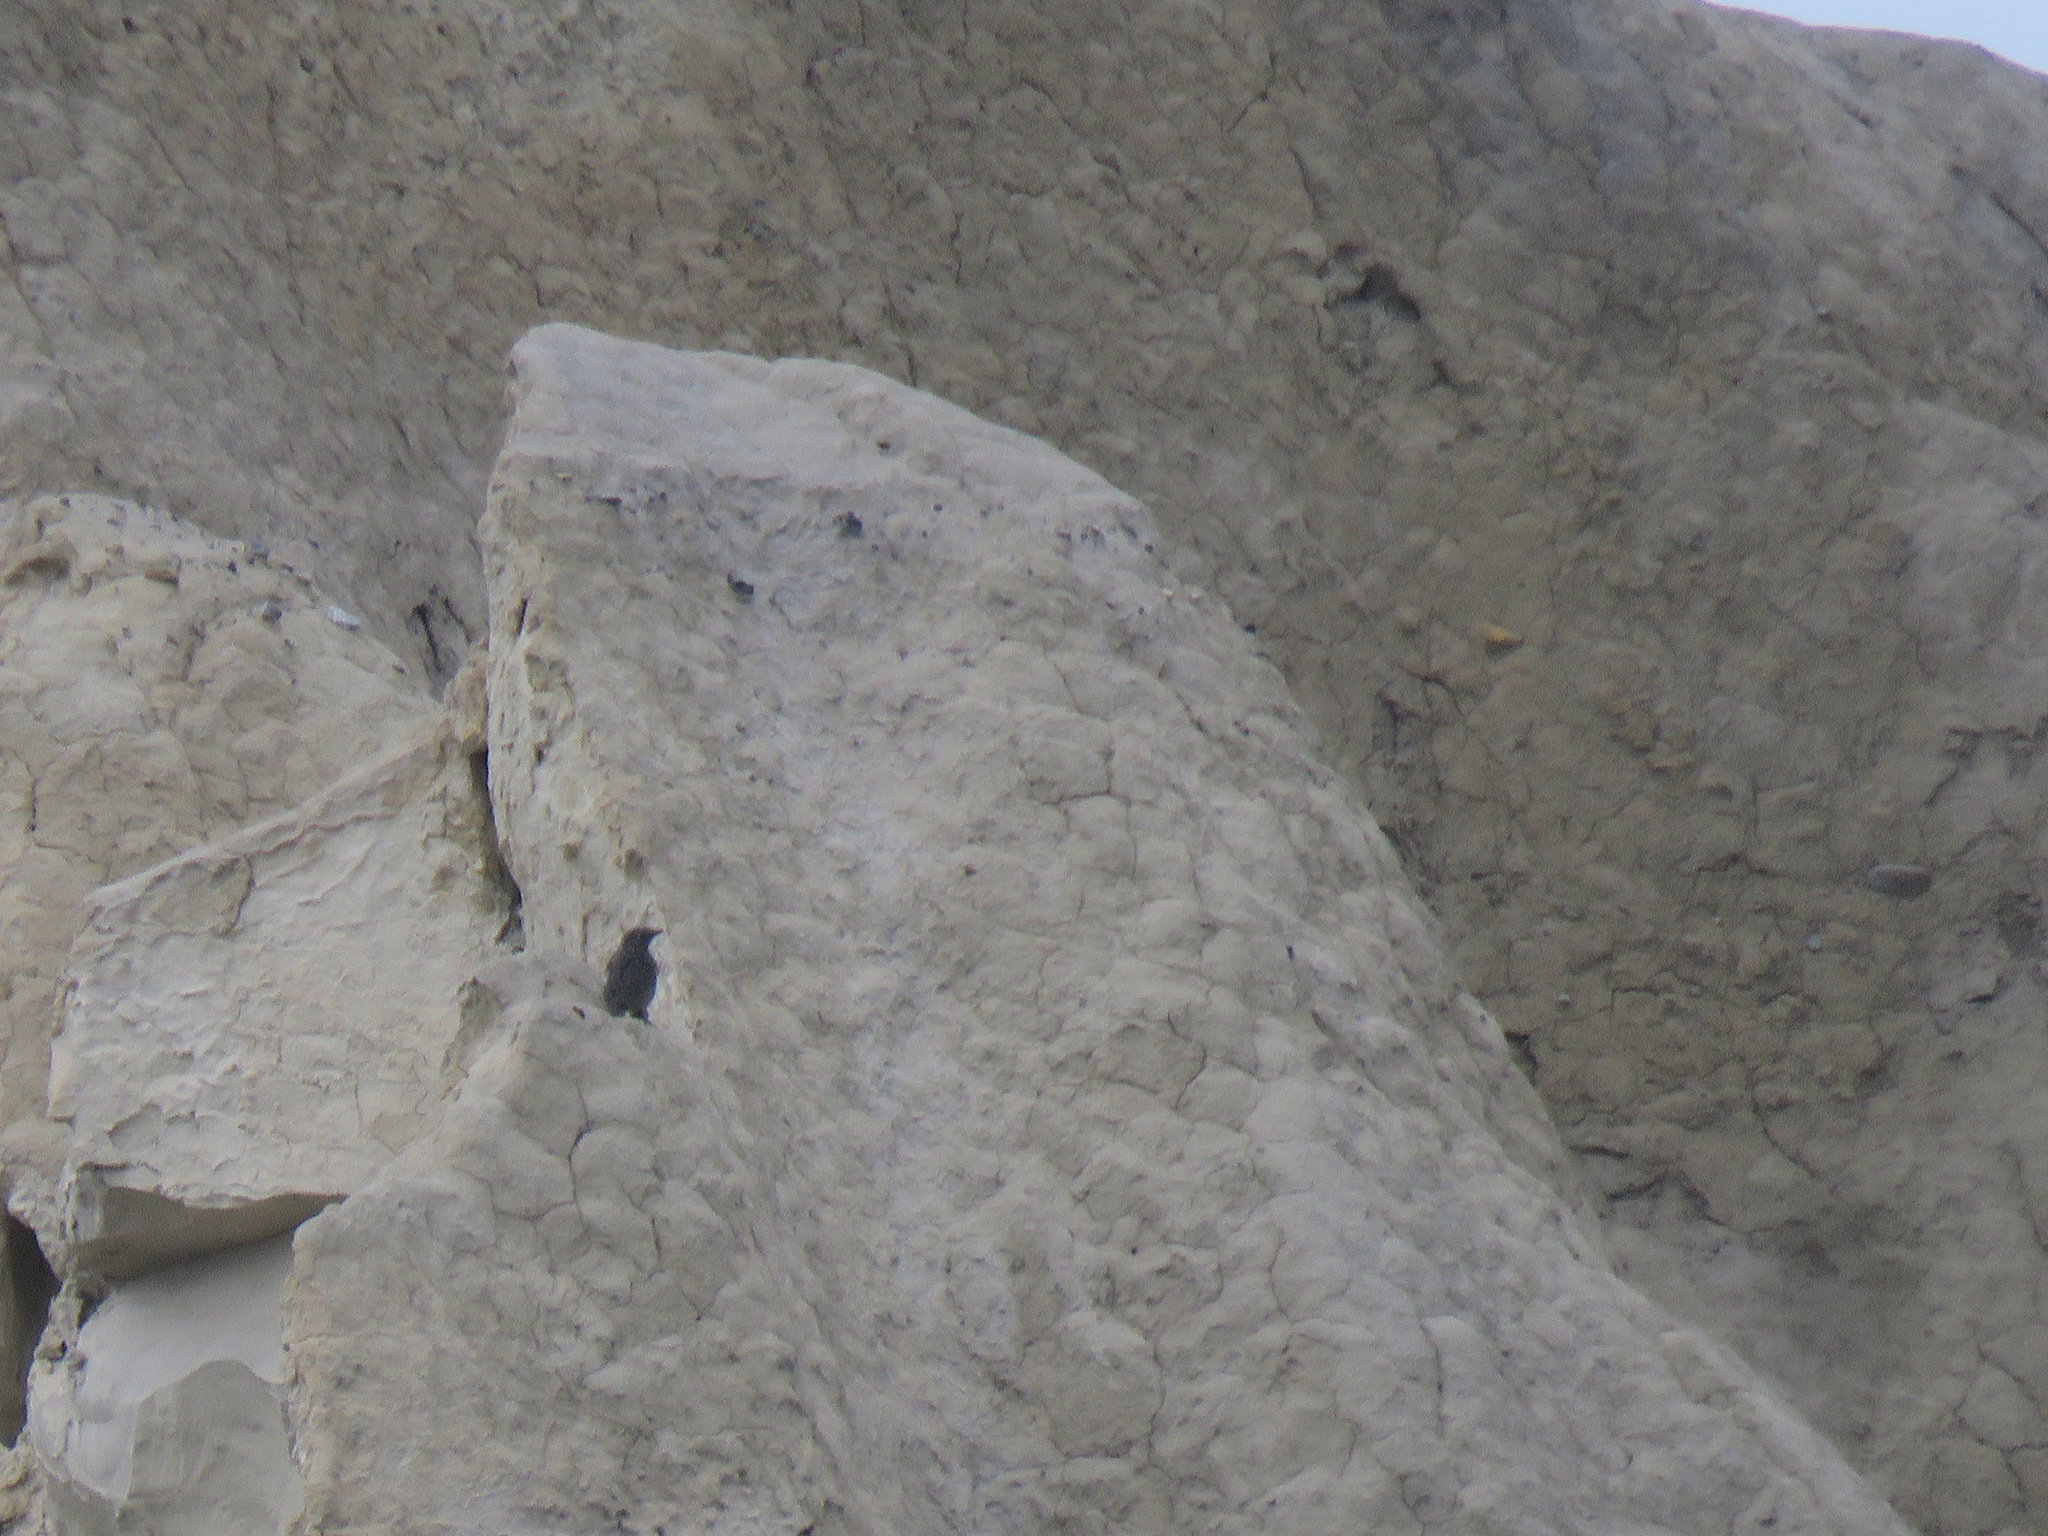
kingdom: Animalia
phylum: Chordata
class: Aves
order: Passeriformes
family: Turdidae
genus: Myadestes
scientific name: Myadestes townsendi
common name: Townsend's solitaire
